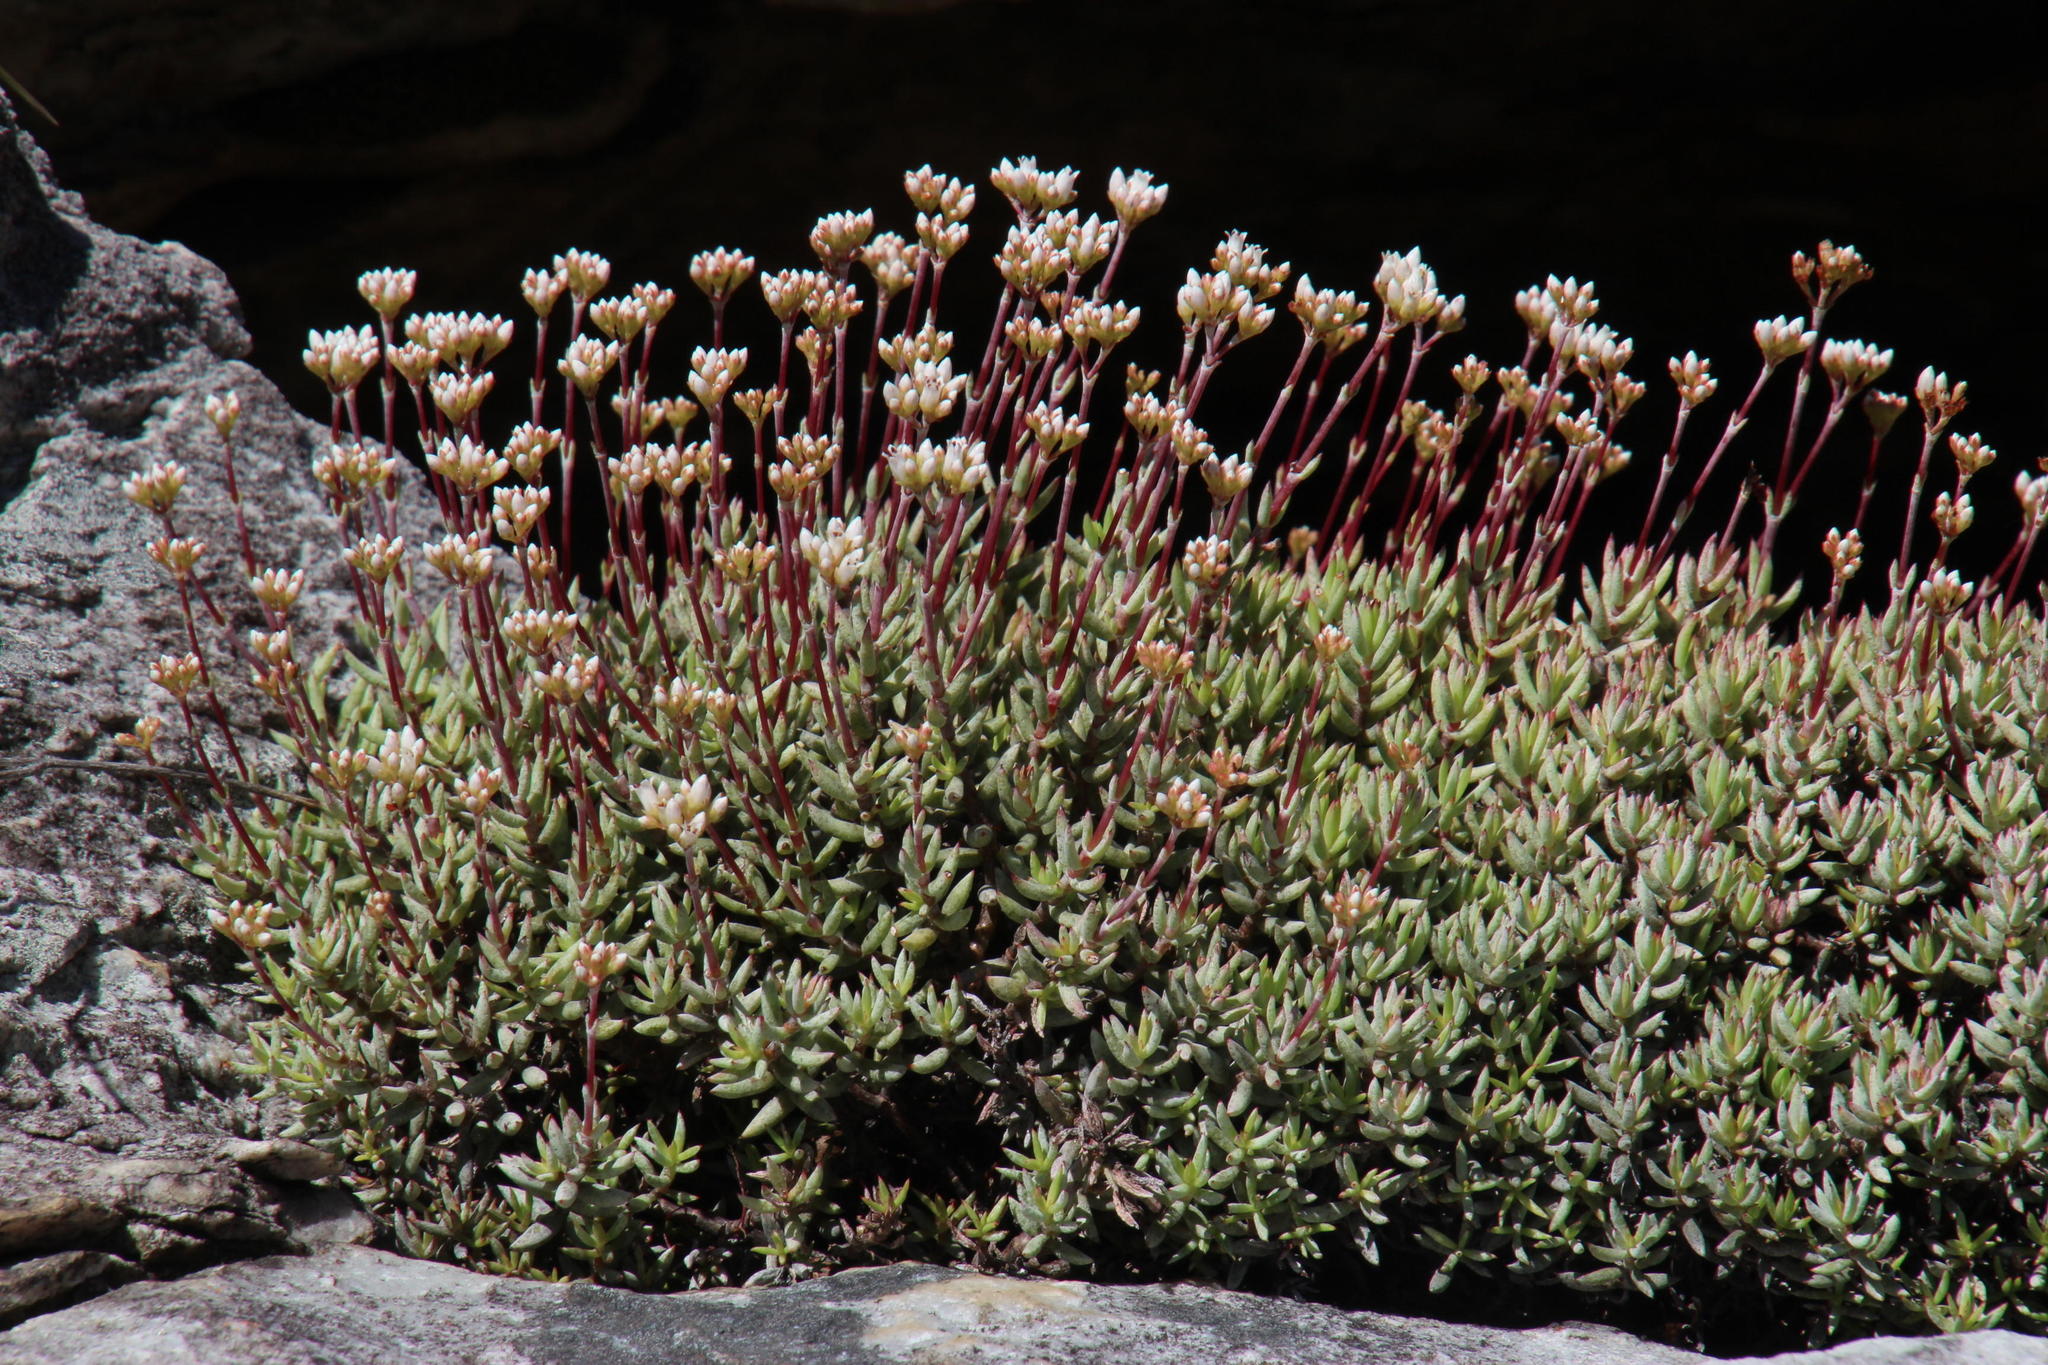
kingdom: Plantae
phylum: Tracheophyta
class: Magnoliopsida
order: Saxifragales
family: Crassulaceae
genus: Crassula
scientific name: Crassula biplanata
